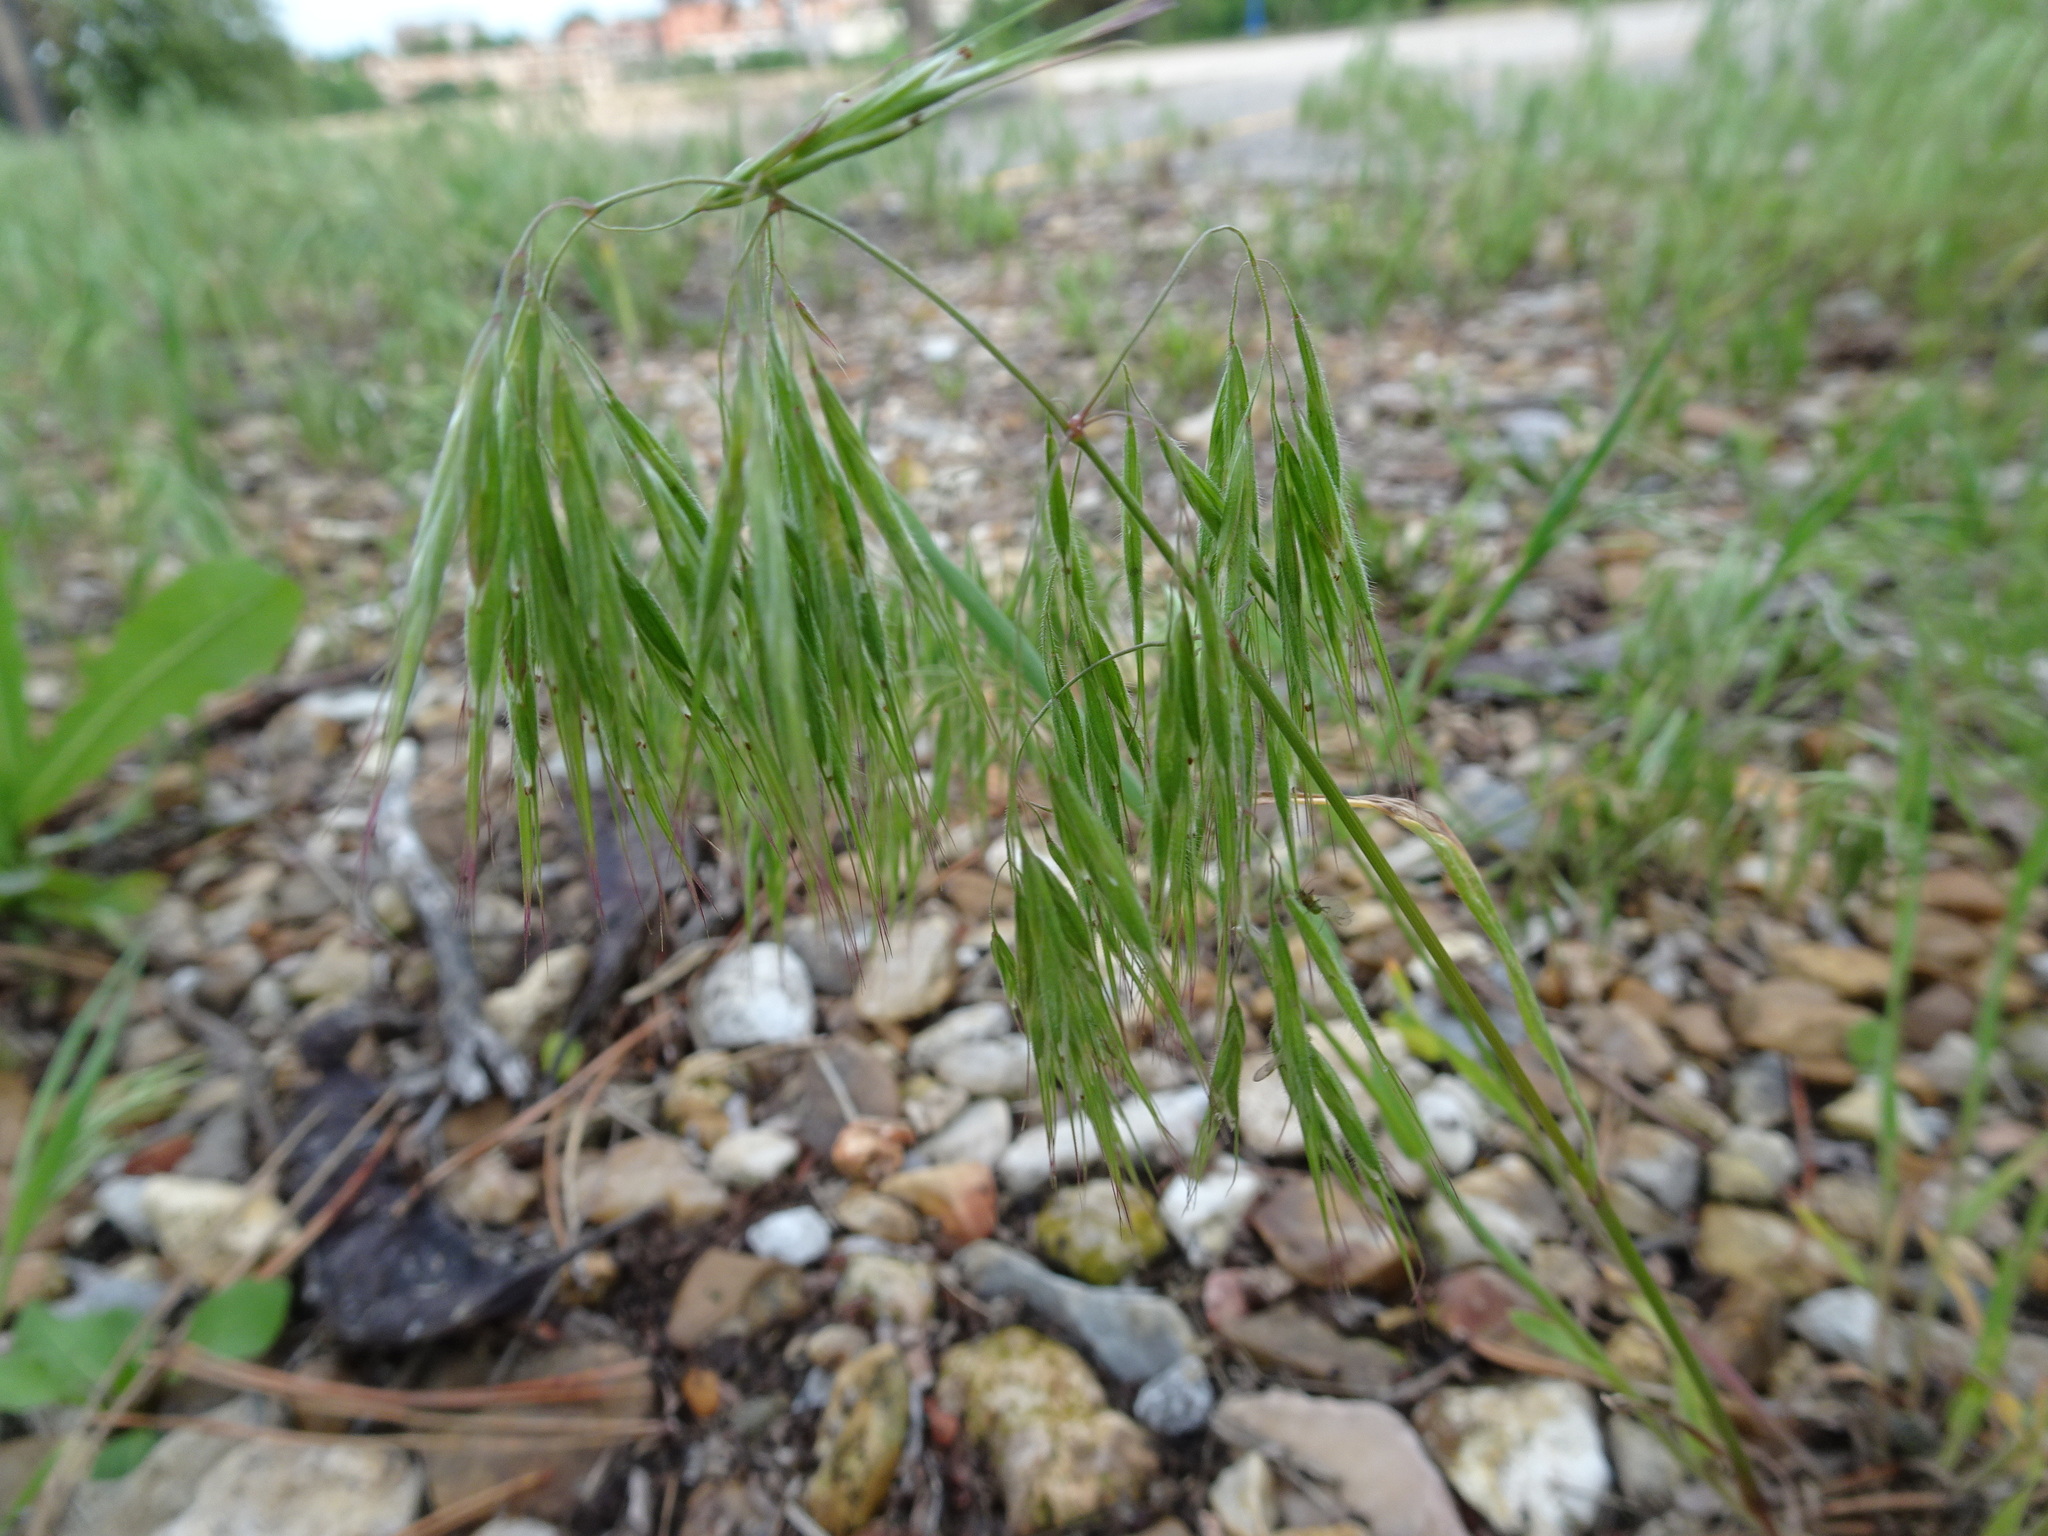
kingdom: Plantae
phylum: Tracheophyta
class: Liliopsida
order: Poales
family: Poaceae
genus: Bromus
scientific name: Bromus tectorum
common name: Cheatgrass
